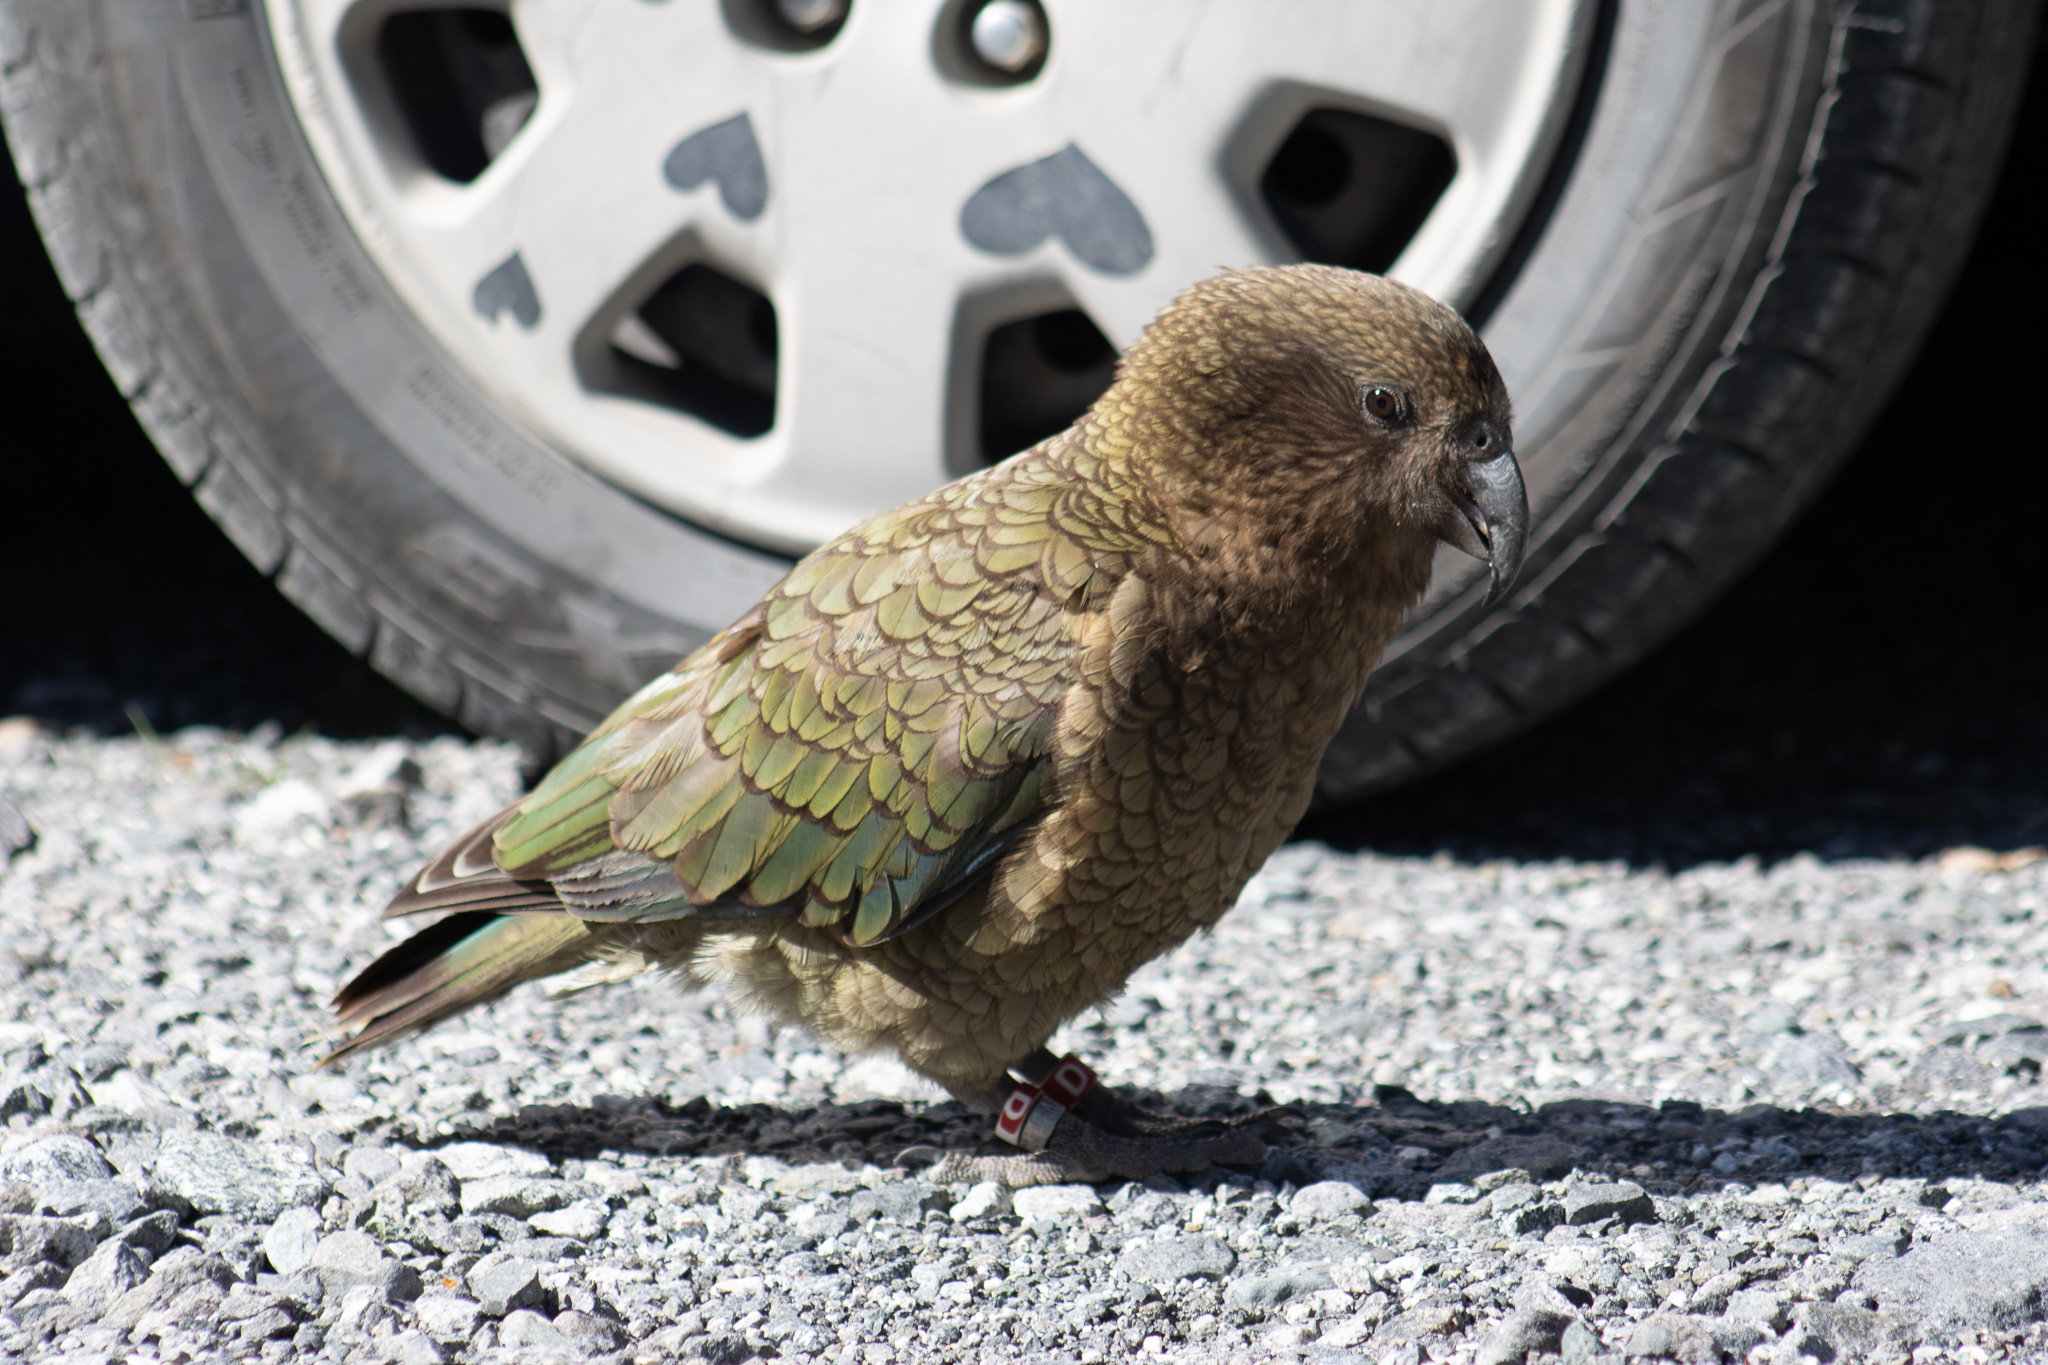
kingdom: Animalia
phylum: Chordata
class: Aves
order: Psittaciformes
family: Psittacidae
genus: Nestor
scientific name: Nestor notabilis
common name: Kea
